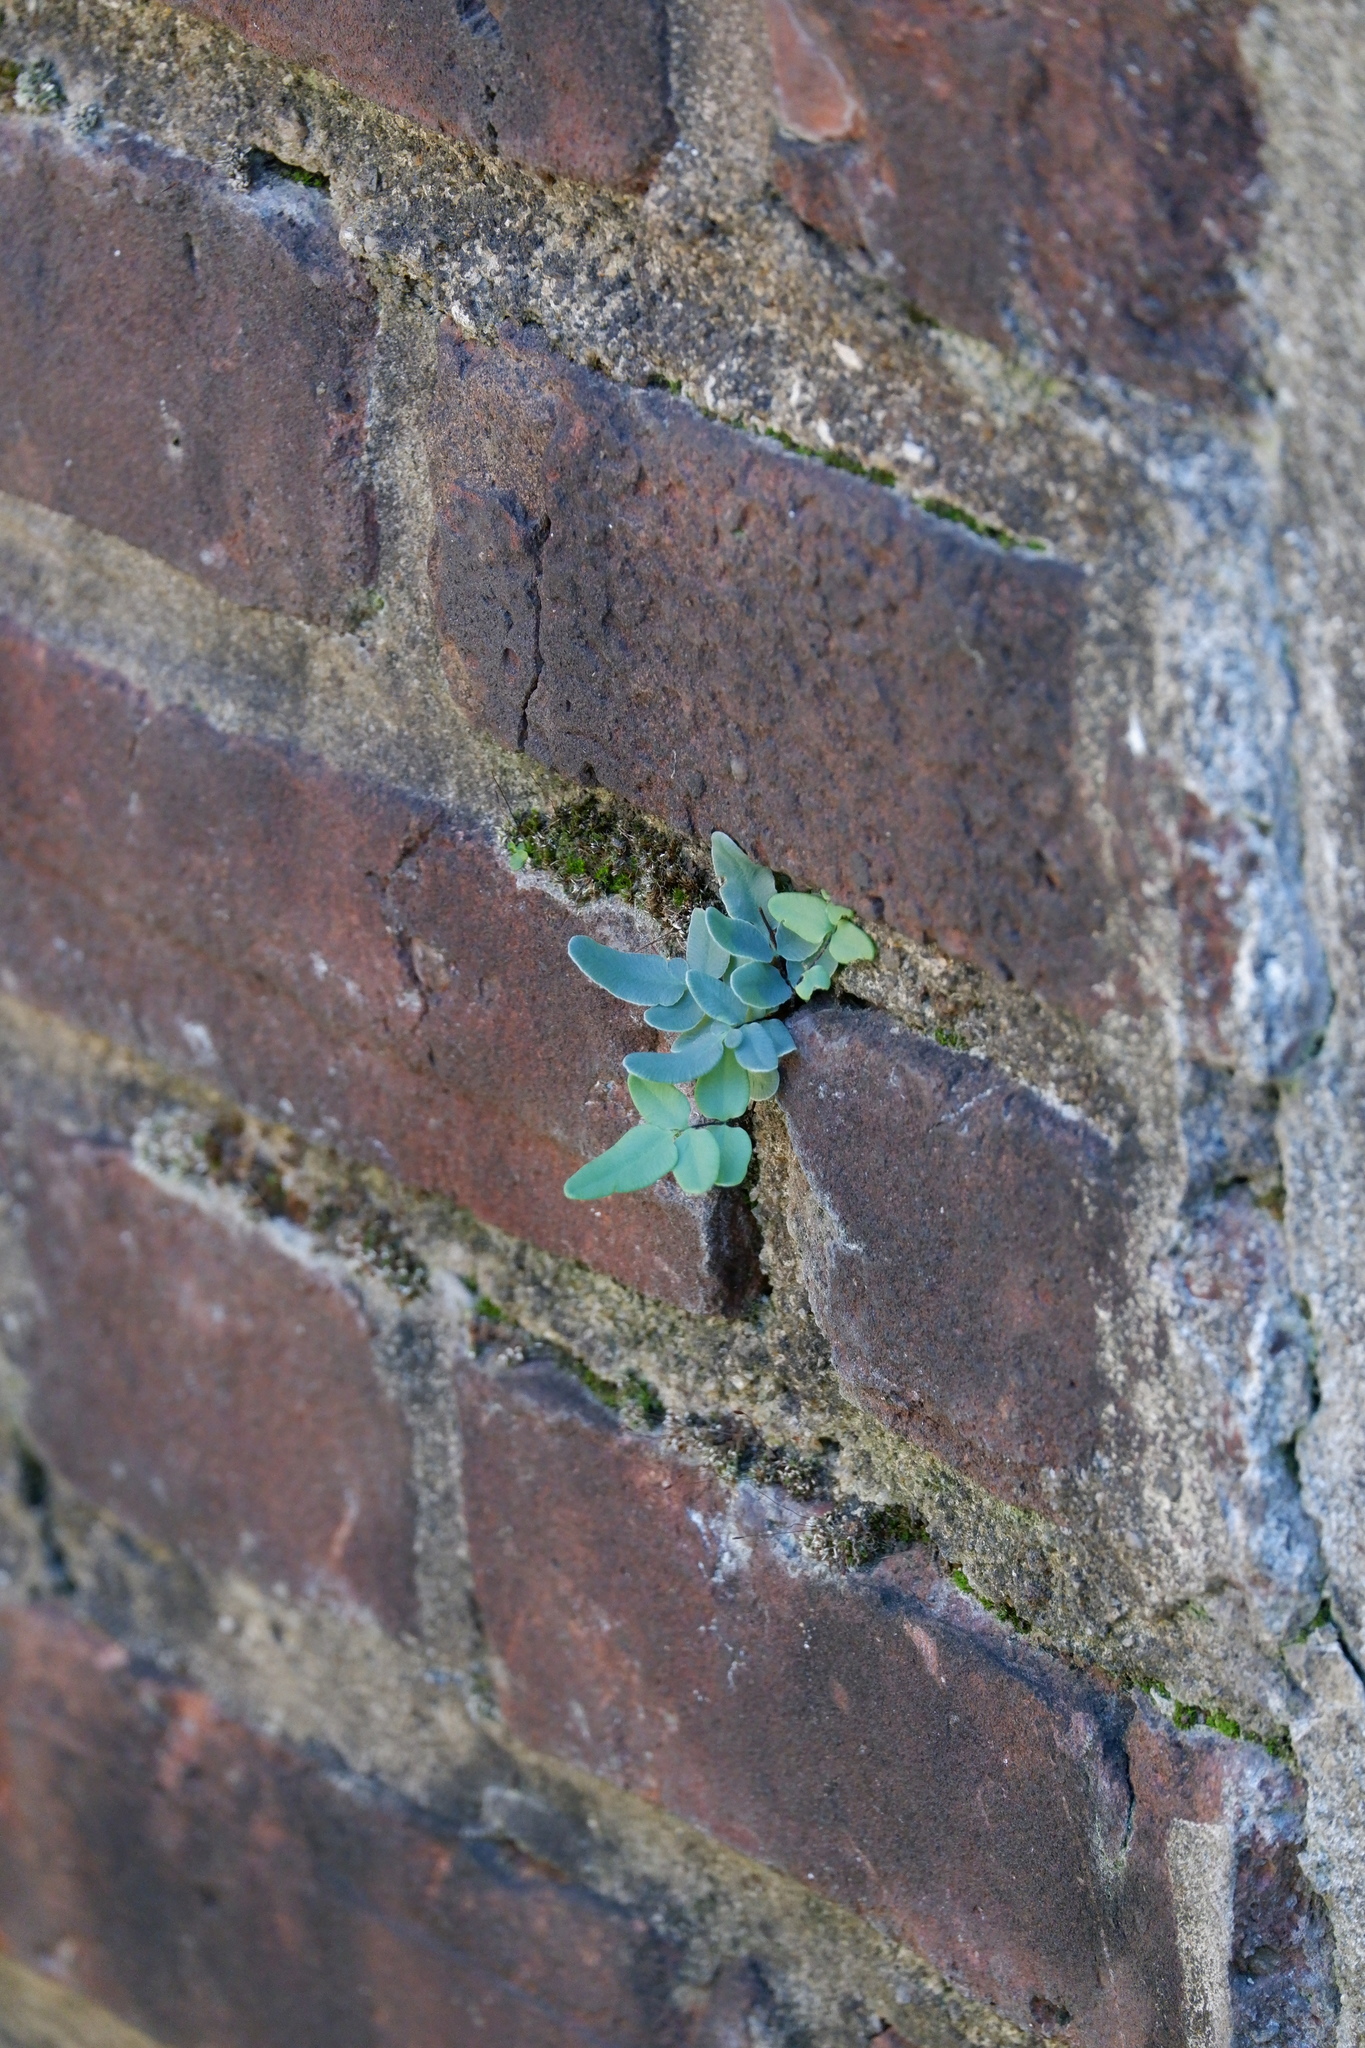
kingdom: Plantae
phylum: Tracheophyta
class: Polypodiopsida
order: Polypodiales
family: Pteridaceae
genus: Pellaea
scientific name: Pellaea glabella
